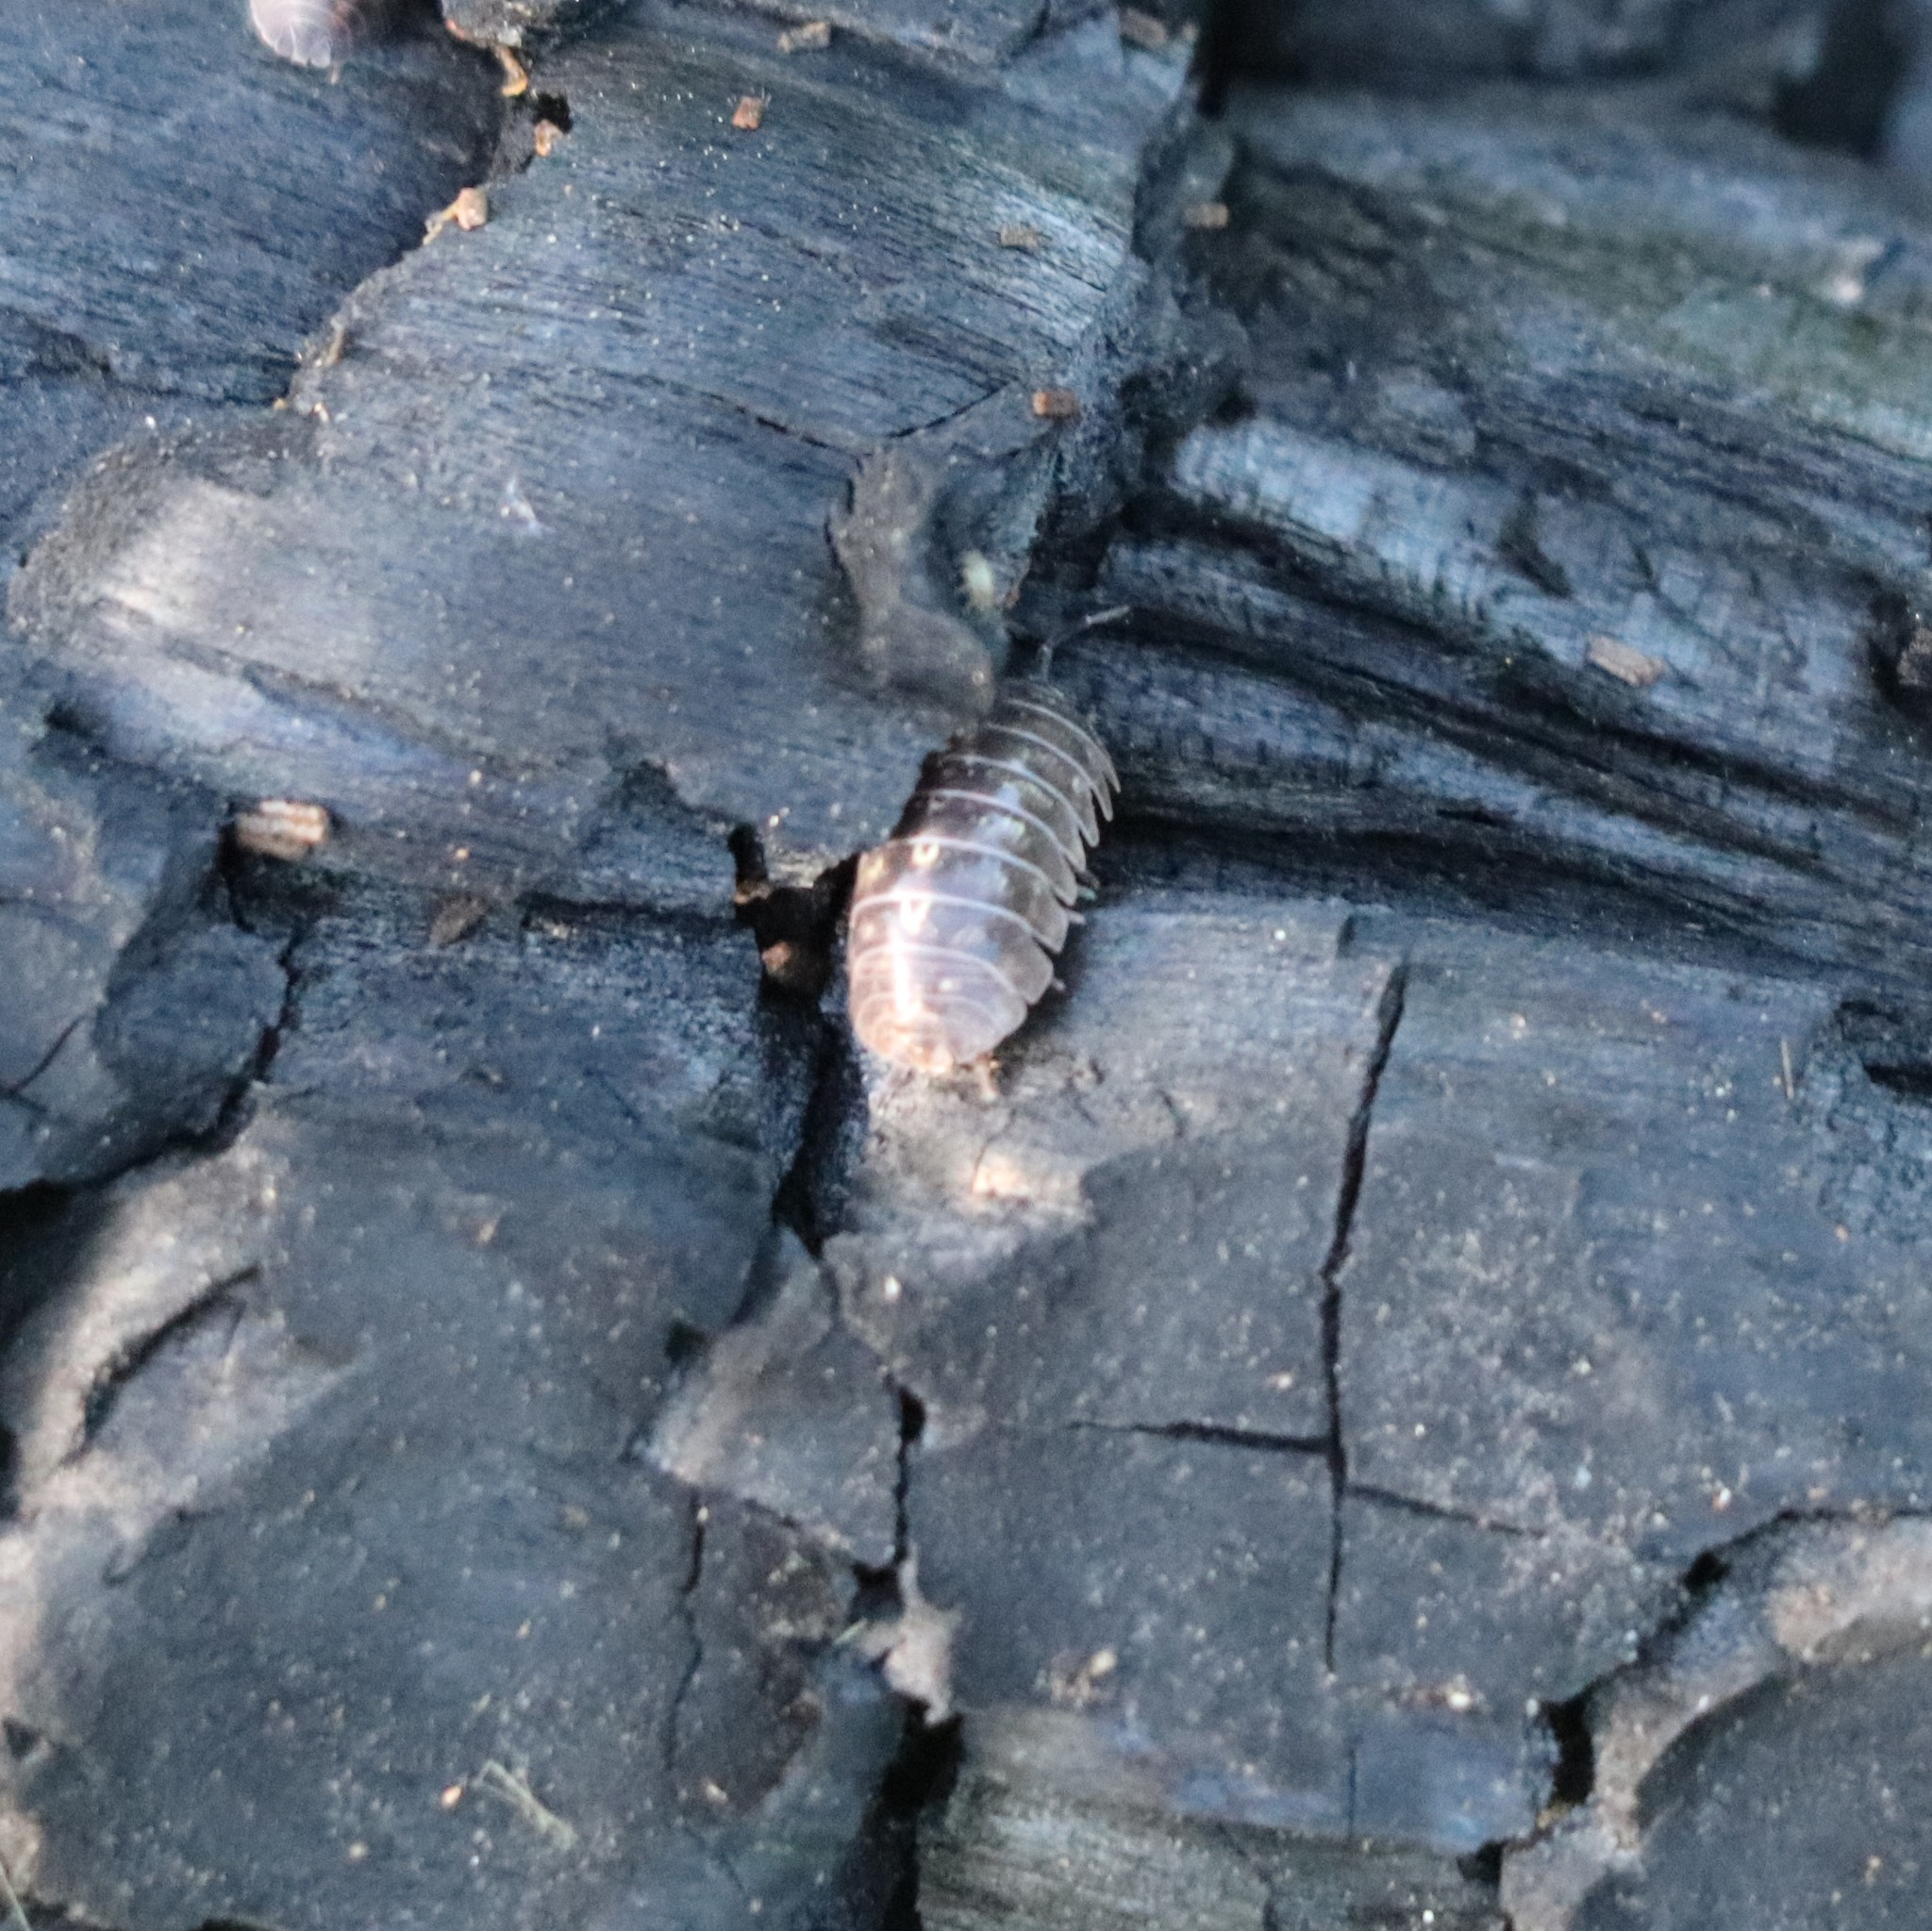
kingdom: Animalia
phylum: Arthropoda
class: Malacostraca
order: Isopoda
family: Armadillidiidae
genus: Armadillidium
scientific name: Armadillidium vulgare
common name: Common pill woodlouse
